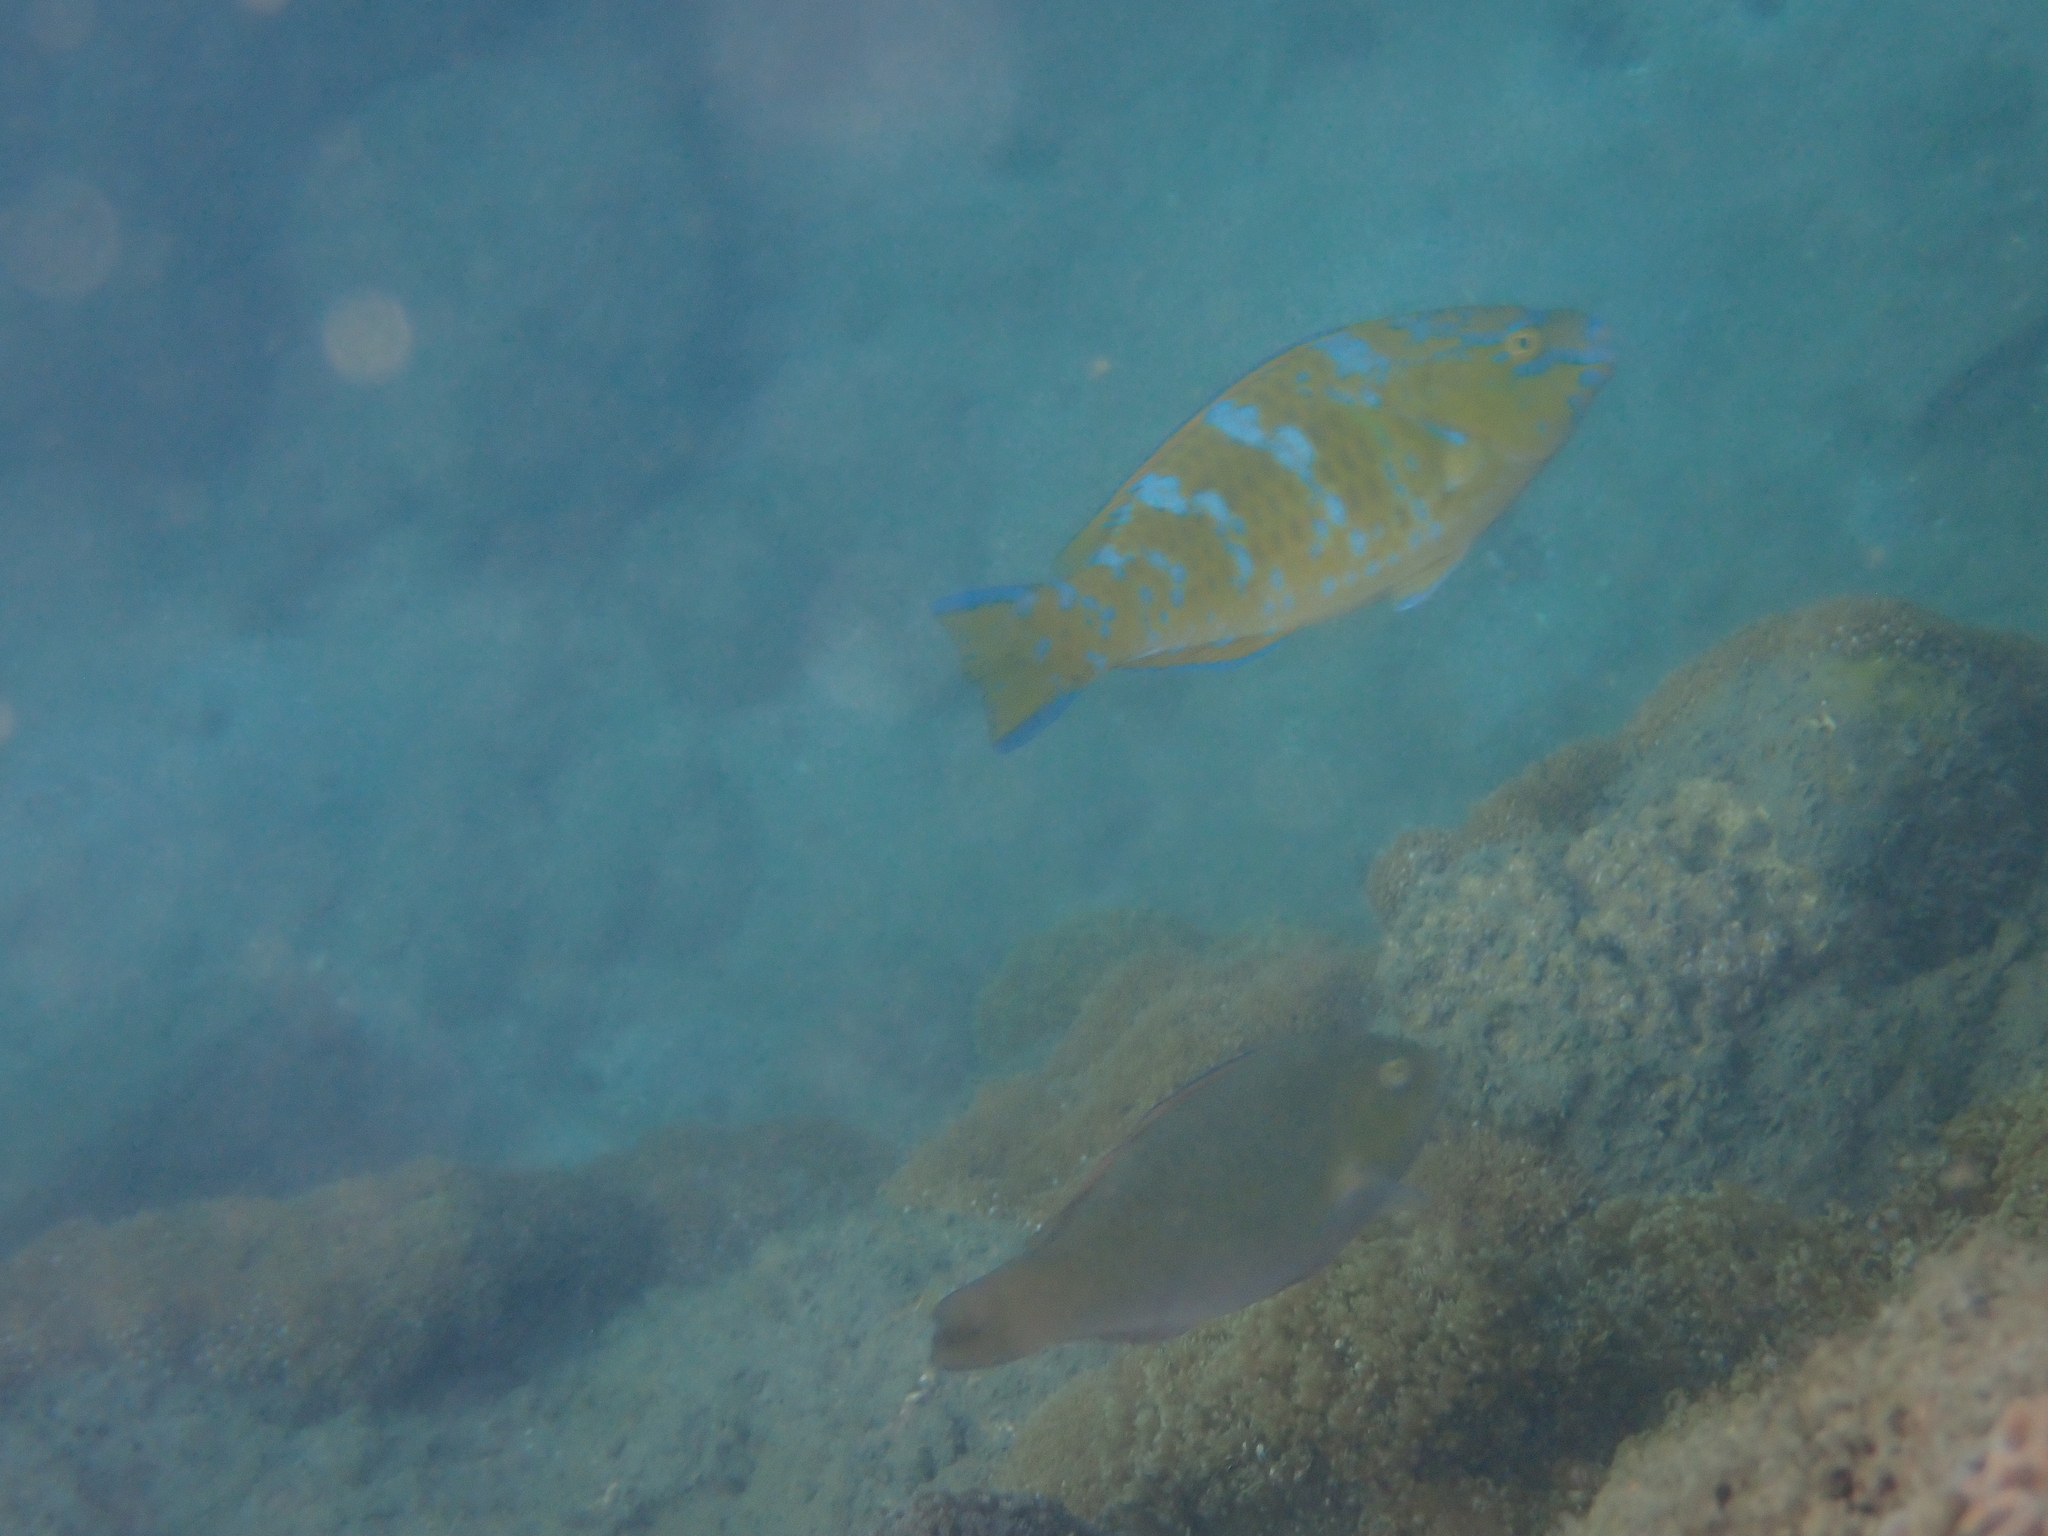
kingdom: Animalia
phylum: Chordata
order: Perciformes
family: Scaridae
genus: Scarus
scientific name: Scarus ghobban
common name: Blue-barred parrotfish
